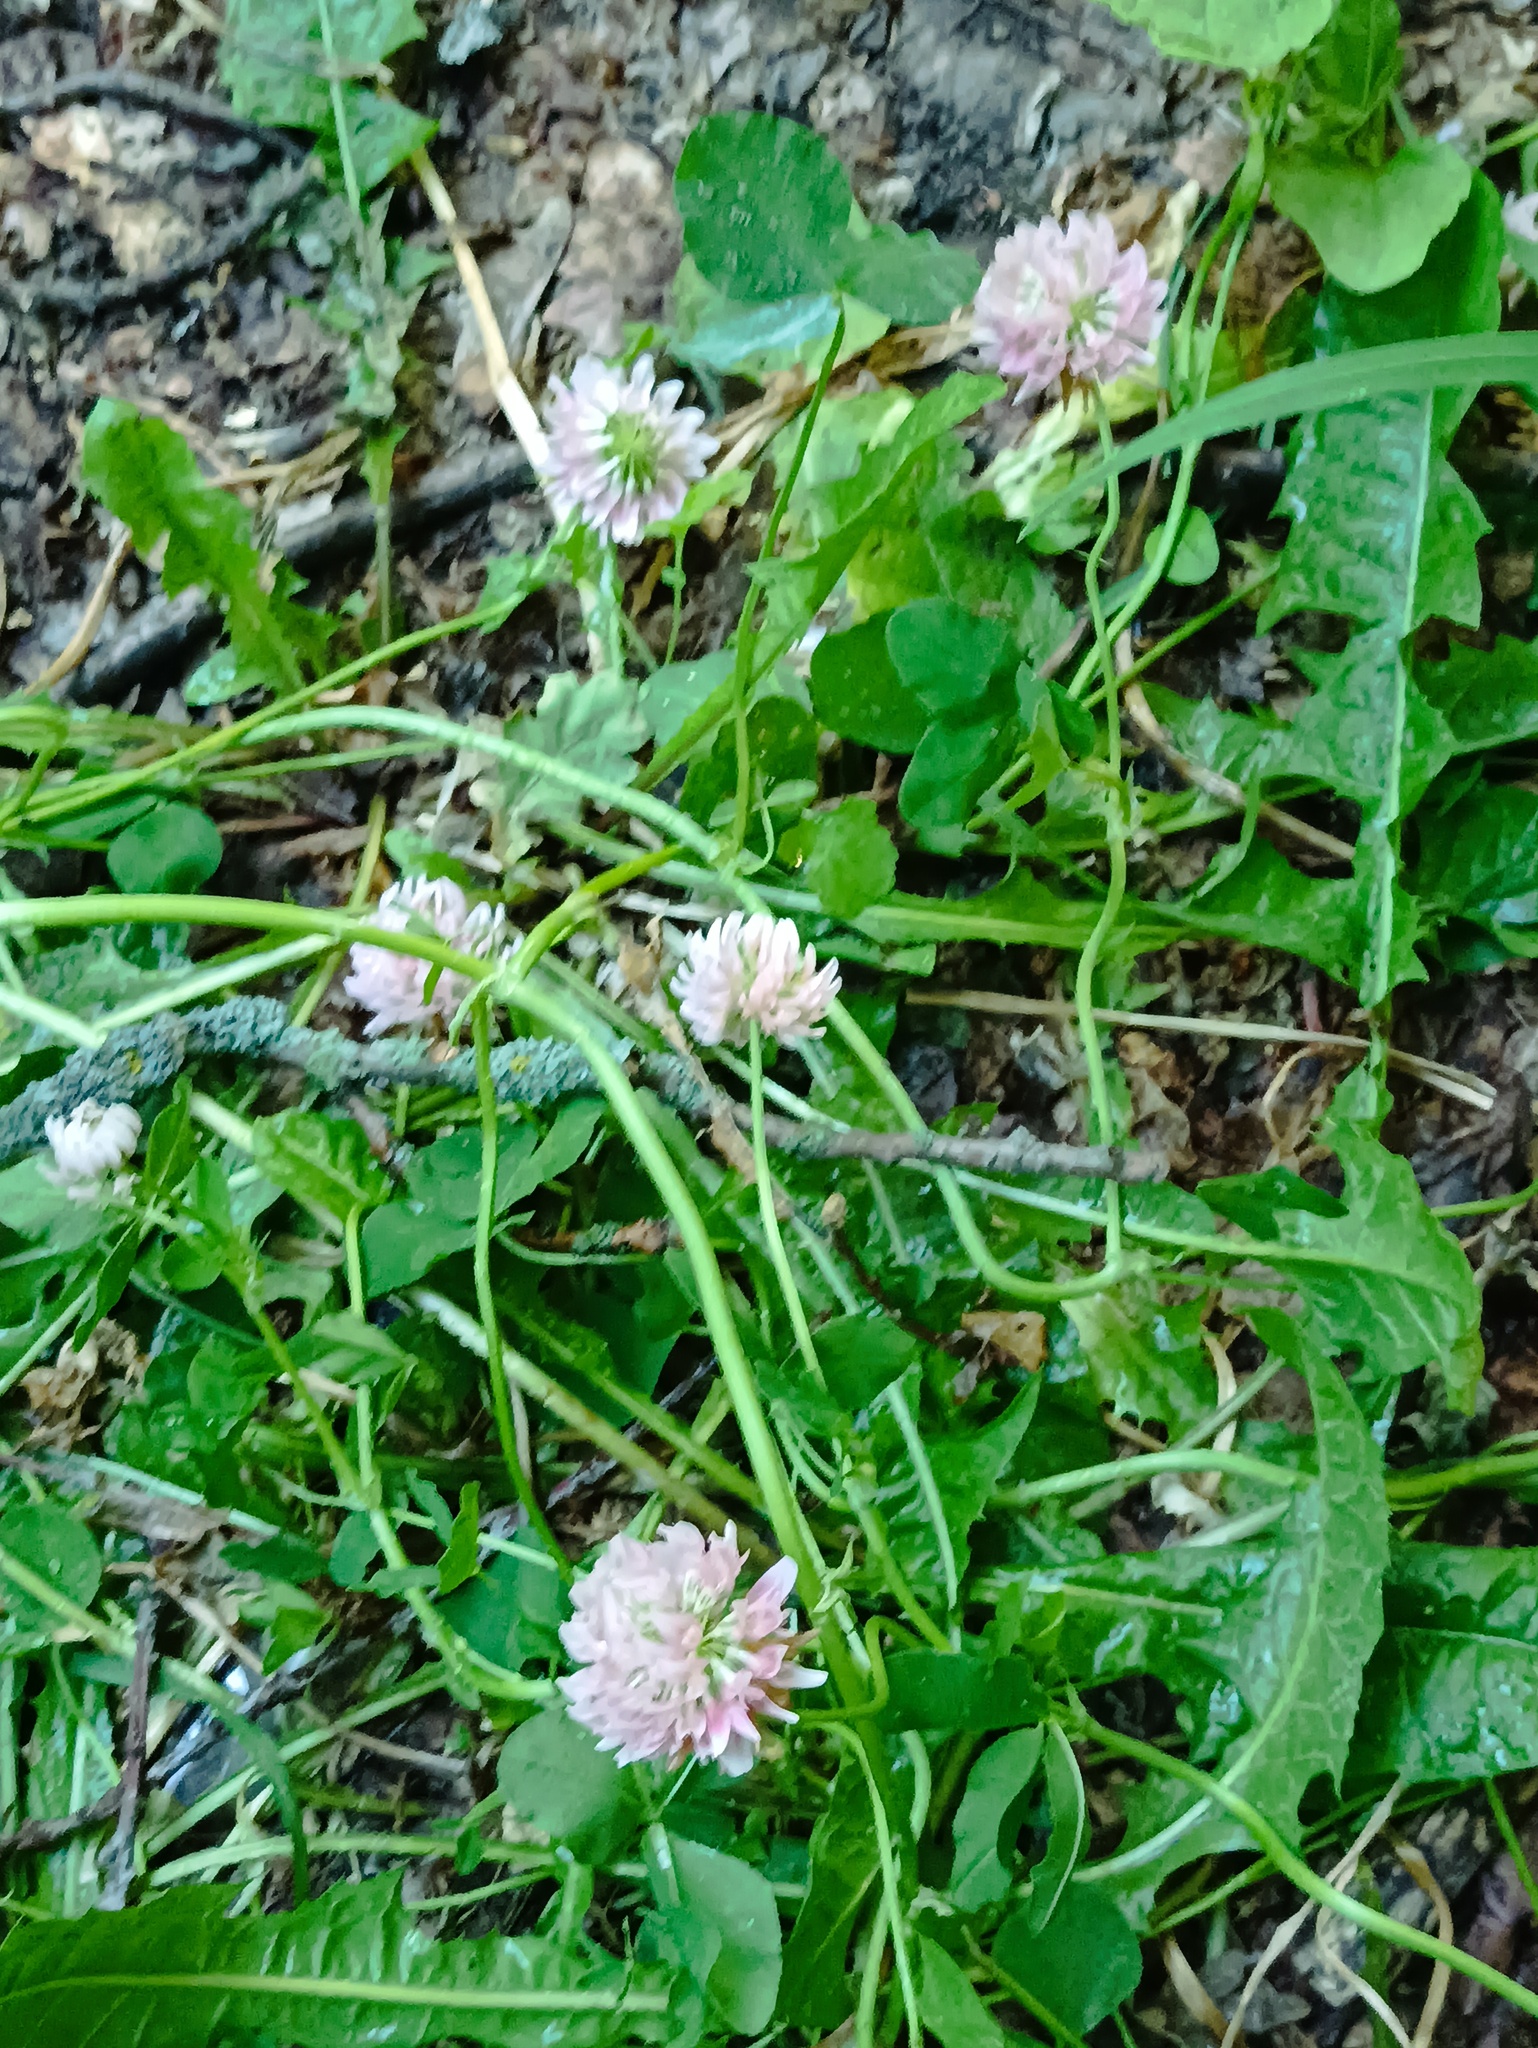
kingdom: Plantae
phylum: Tracheophyta
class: Magnoliopsida
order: Fabales
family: Fabaceae
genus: Trifolium
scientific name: Trifolium hybridum
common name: Alsike clover
